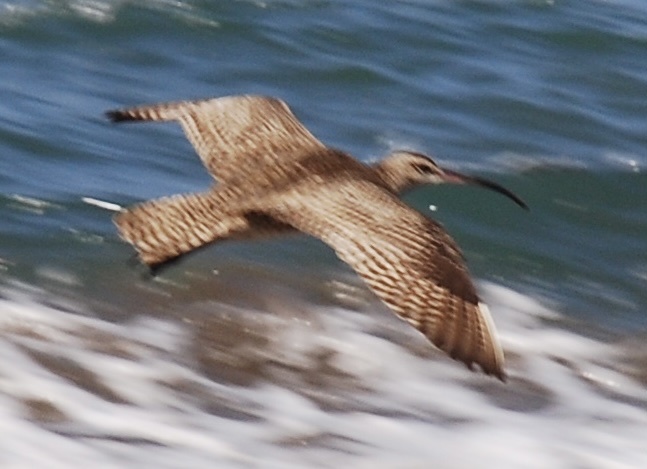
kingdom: Animalia
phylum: Chordata
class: Aves
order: Charadriiformes
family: Scolopacidae
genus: Numenius
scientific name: Numenius phaeopus
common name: Whimbrel
